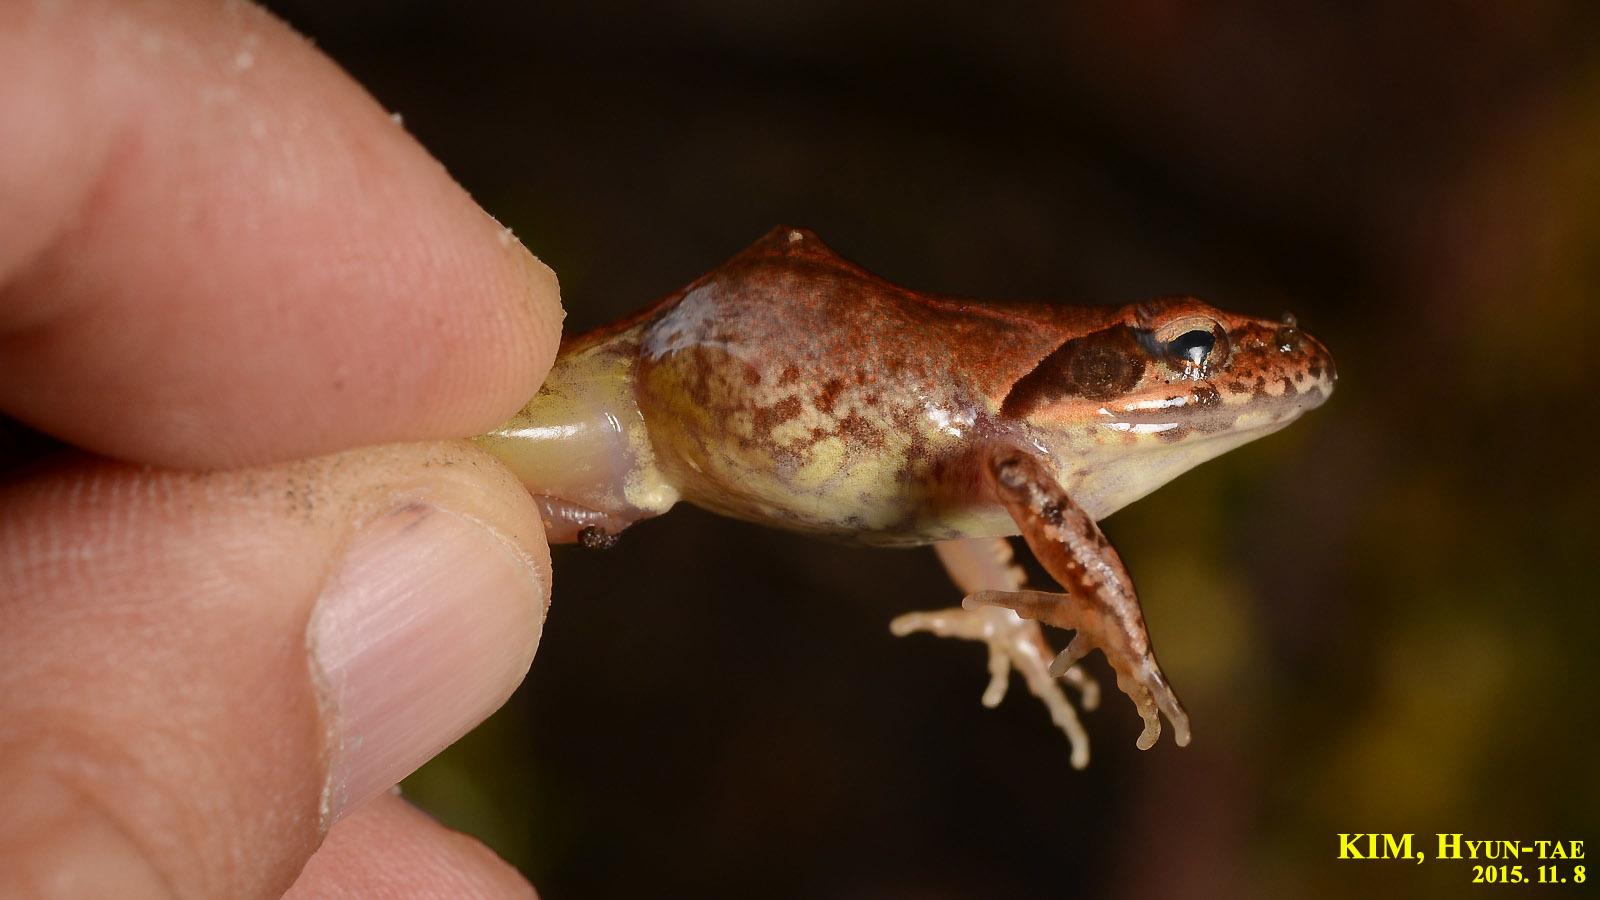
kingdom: Animalia
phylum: Chordata
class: Amphibia
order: Anura
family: Ranidae
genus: Rana
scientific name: Rana uenoi
